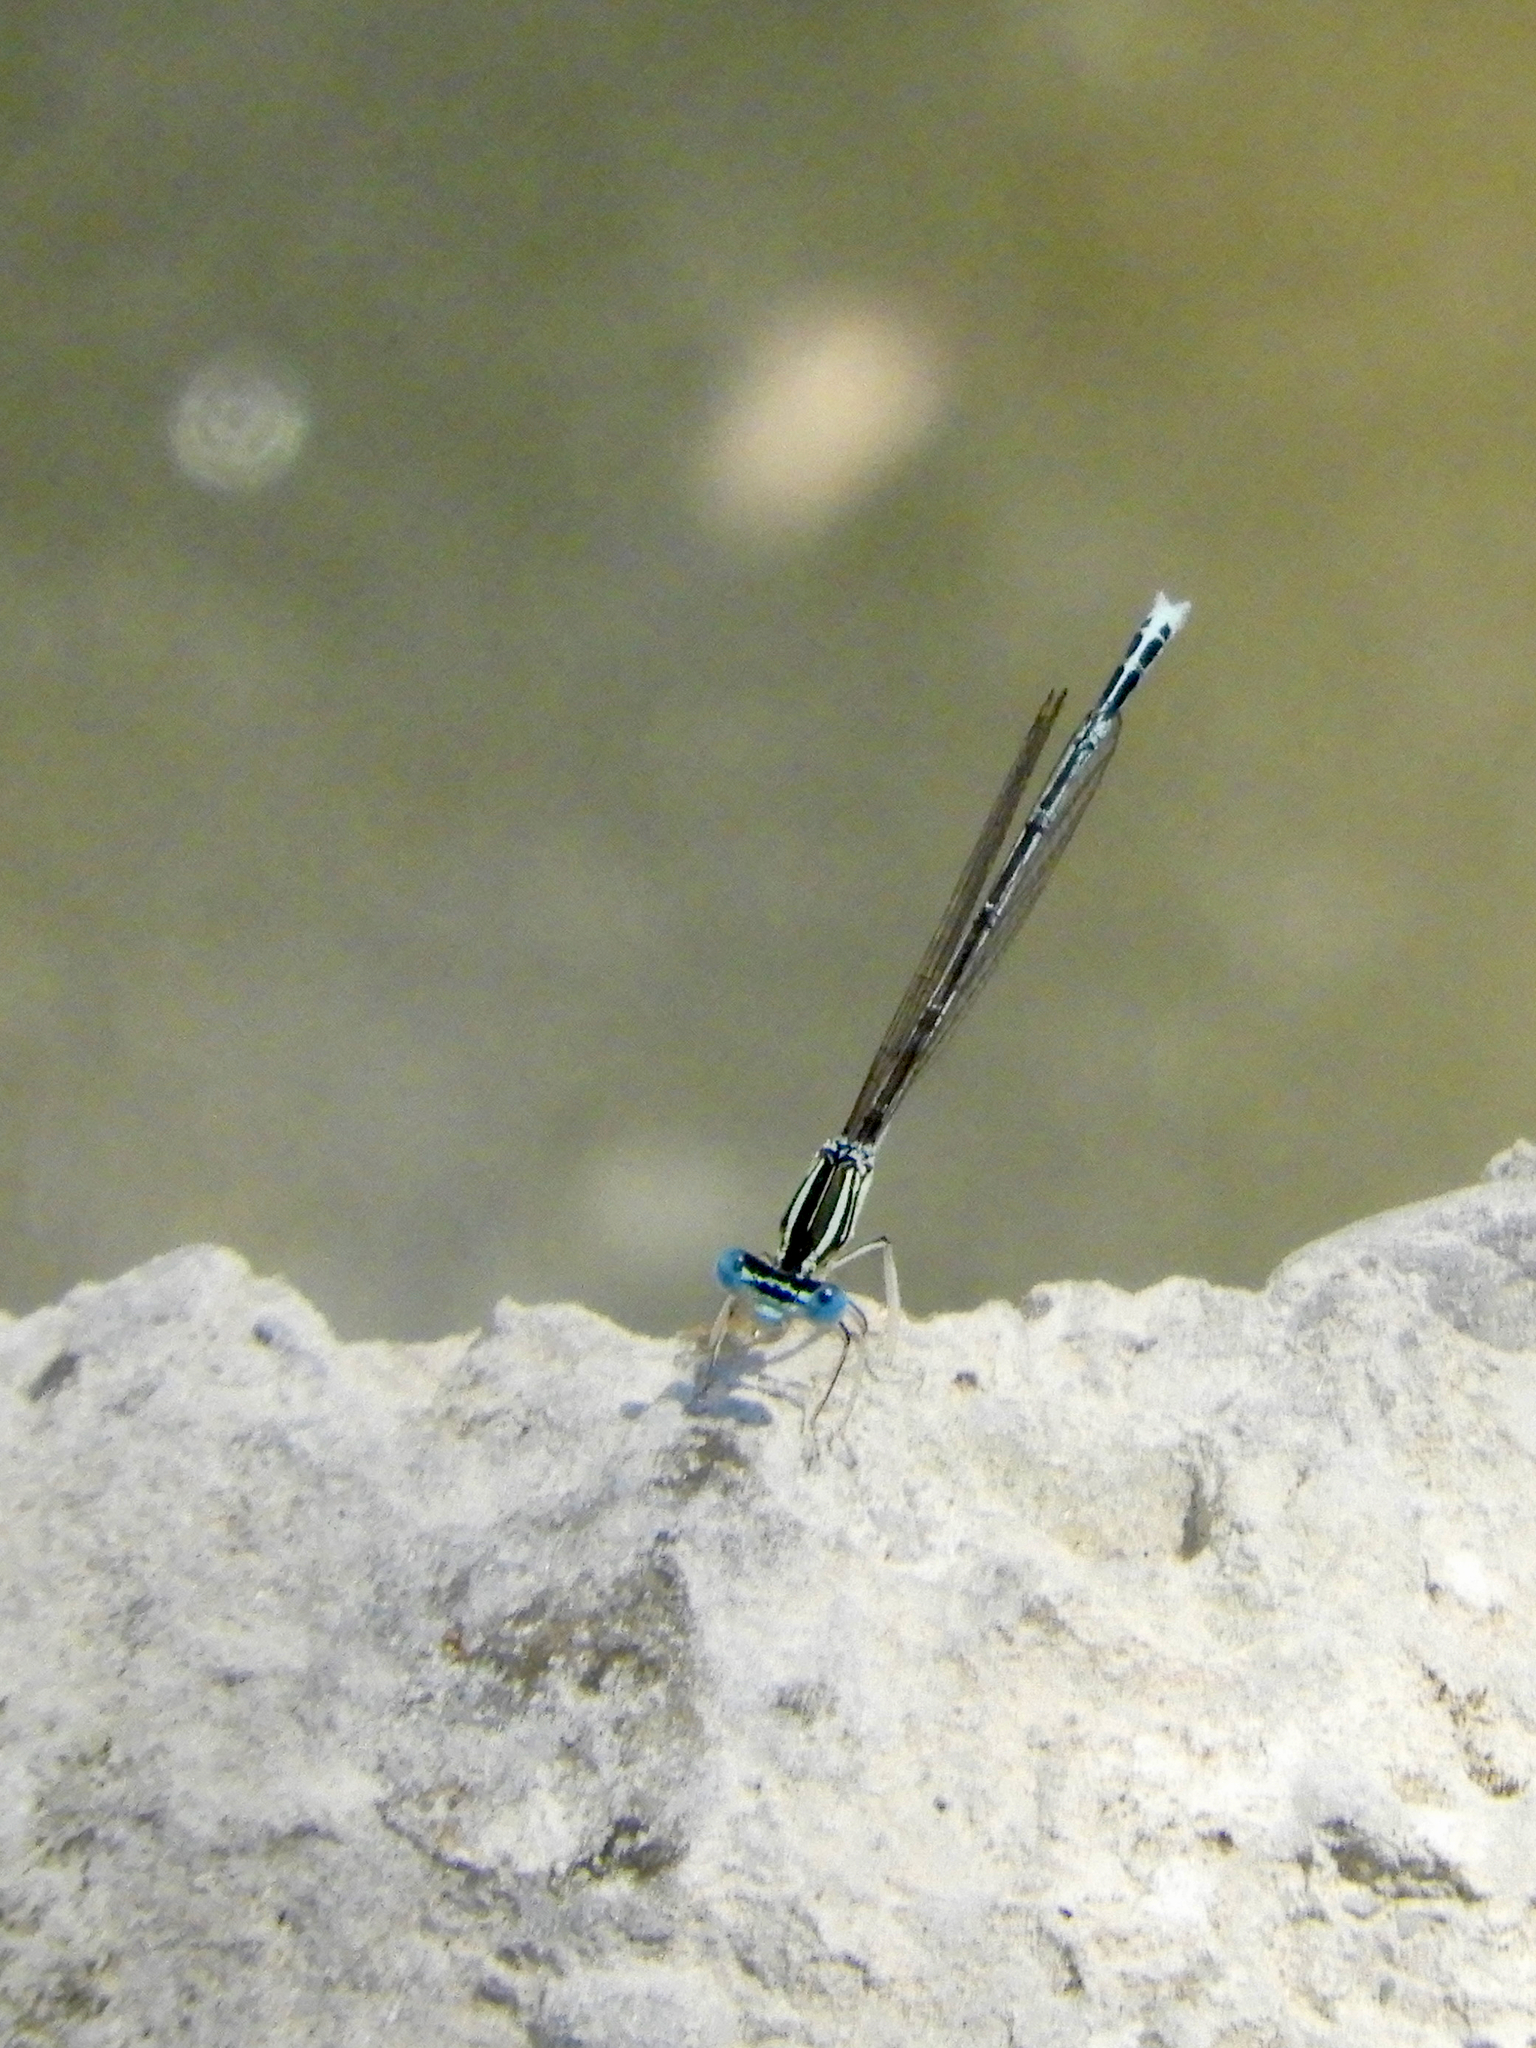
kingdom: Animalia
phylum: Arthropoda
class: Insecta
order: Odonata
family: Platycnemididae
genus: Platycnemis
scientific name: Platycnemis pennipes
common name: White-legged damselfly
